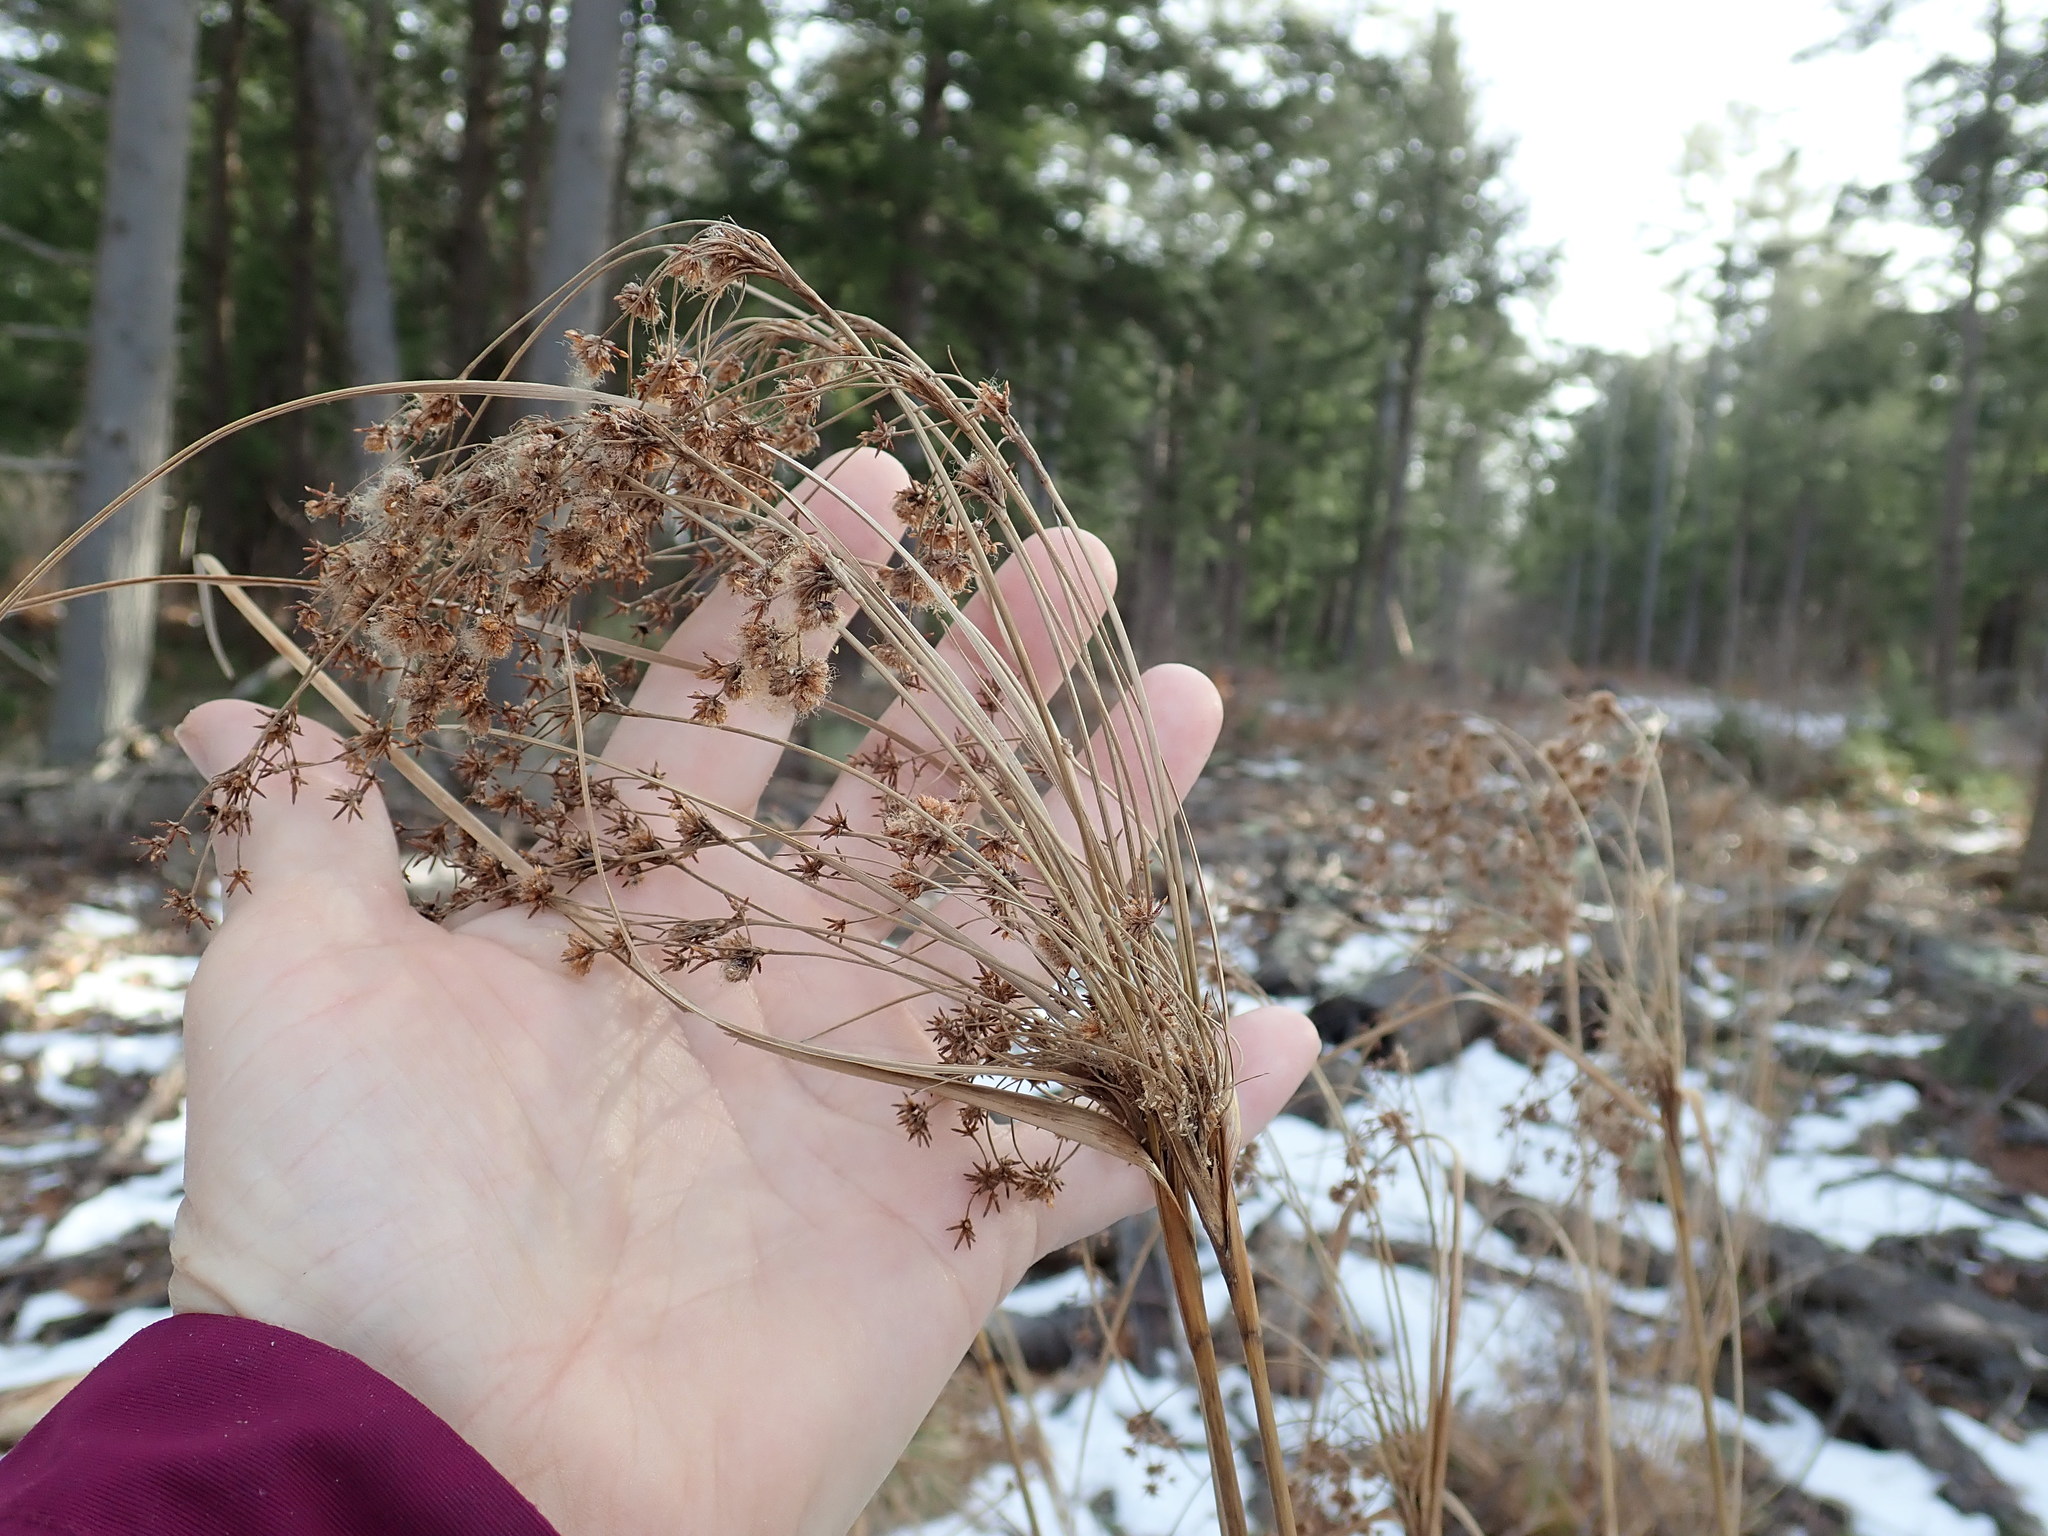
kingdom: Plantae
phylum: Tracheophyta
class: Liliopsida
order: Poales
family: Cyperaceae
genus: Scirpus
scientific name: Scirpus cyperinus
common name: Black-sheathed bulrush
